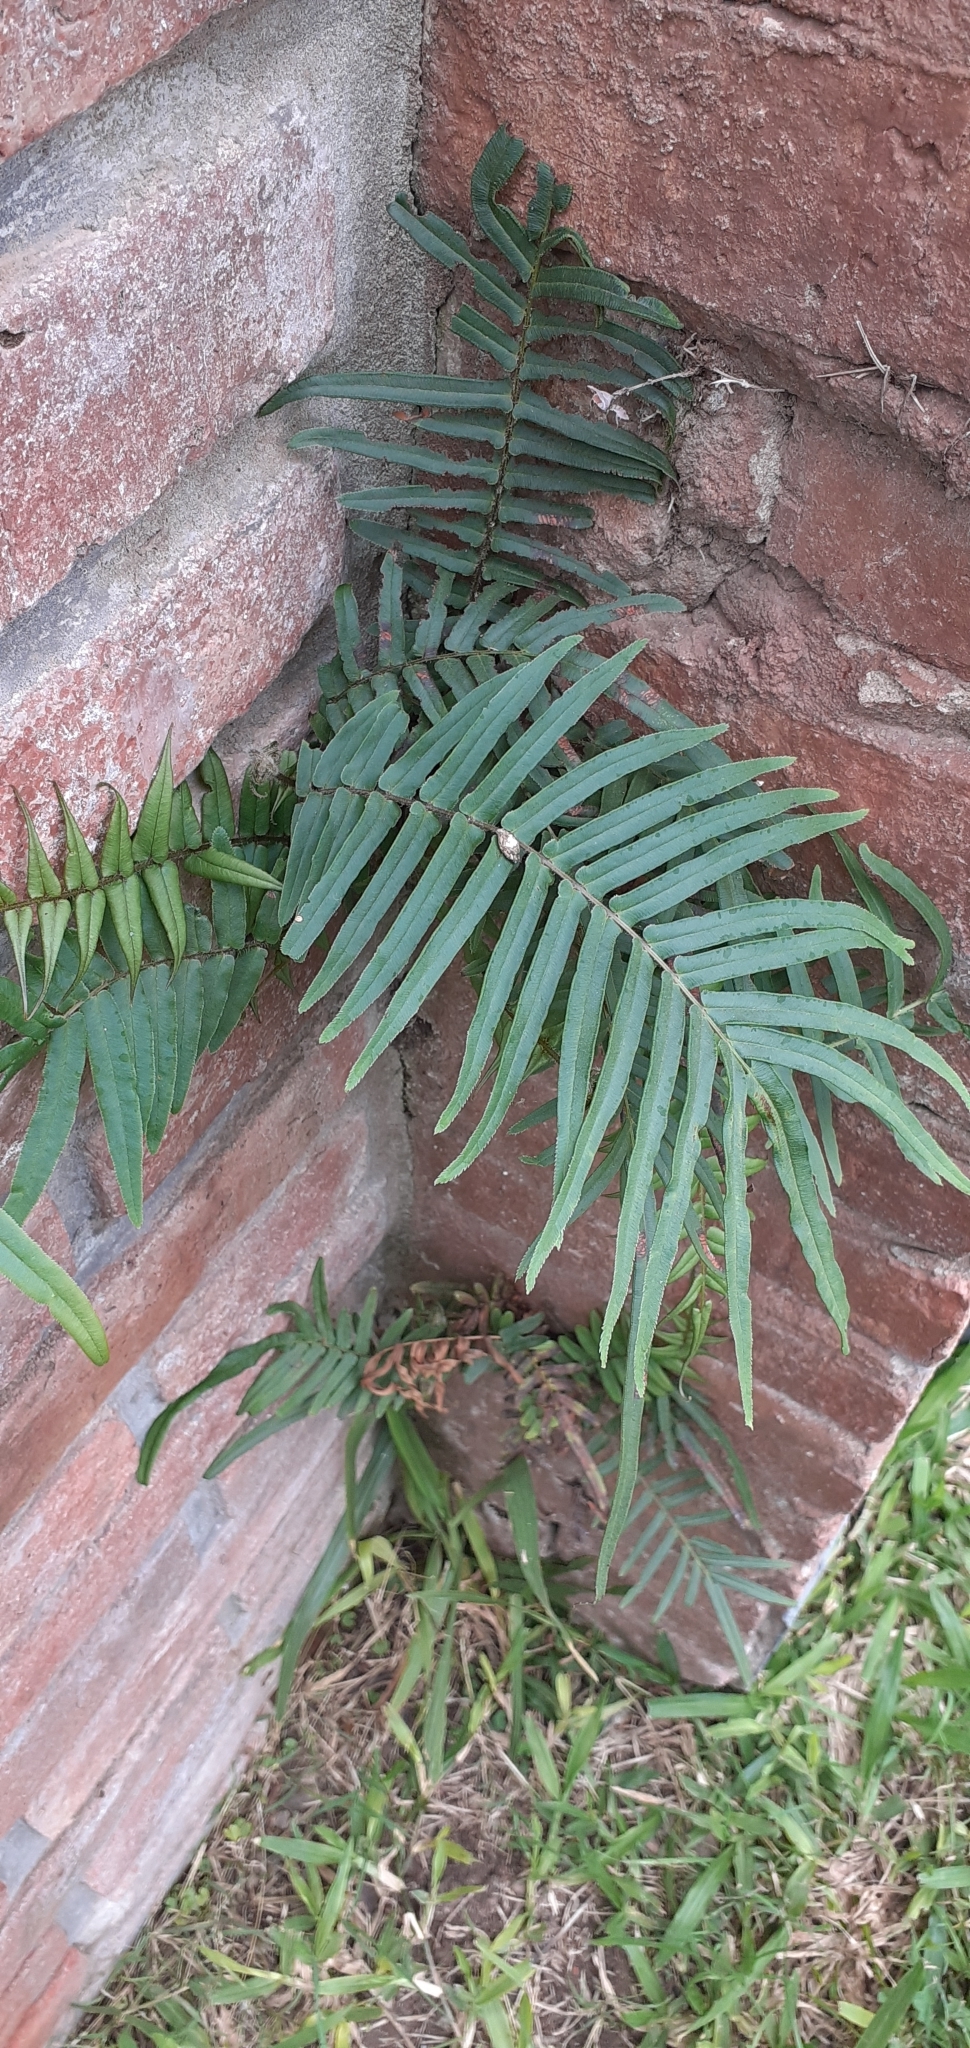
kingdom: Plantae
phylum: Tracheophyta
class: Polypodiopsida
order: Polypodiales
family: Pteridaceae
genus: Pteris
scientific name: Pteris vittata
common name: Ladder brake
